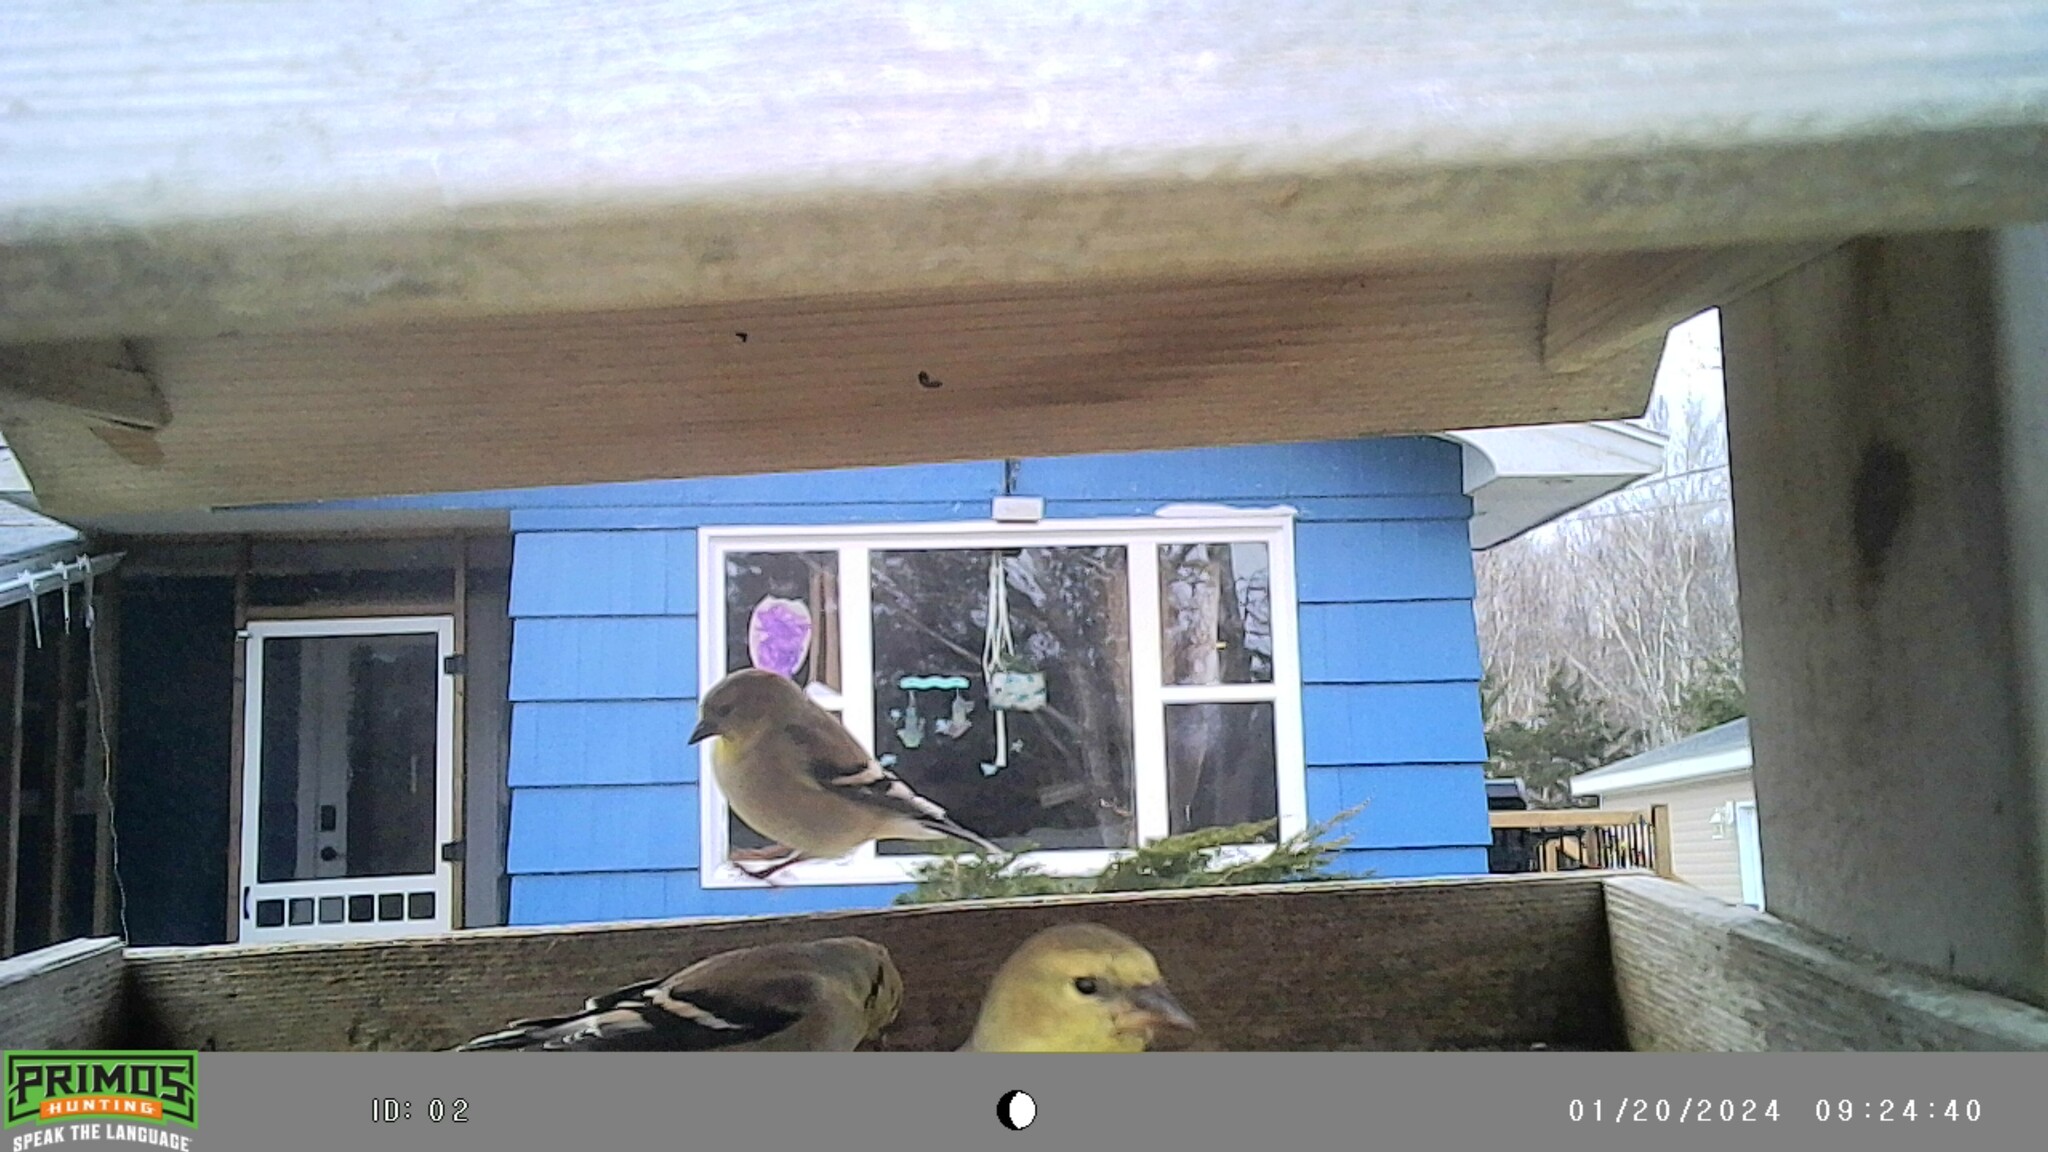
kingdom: Animalia
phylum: Chordata
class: Aves
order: Passeriformes
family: Fringillidae
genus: Spinus
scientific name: Spinus tristis
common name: American goldfinch
